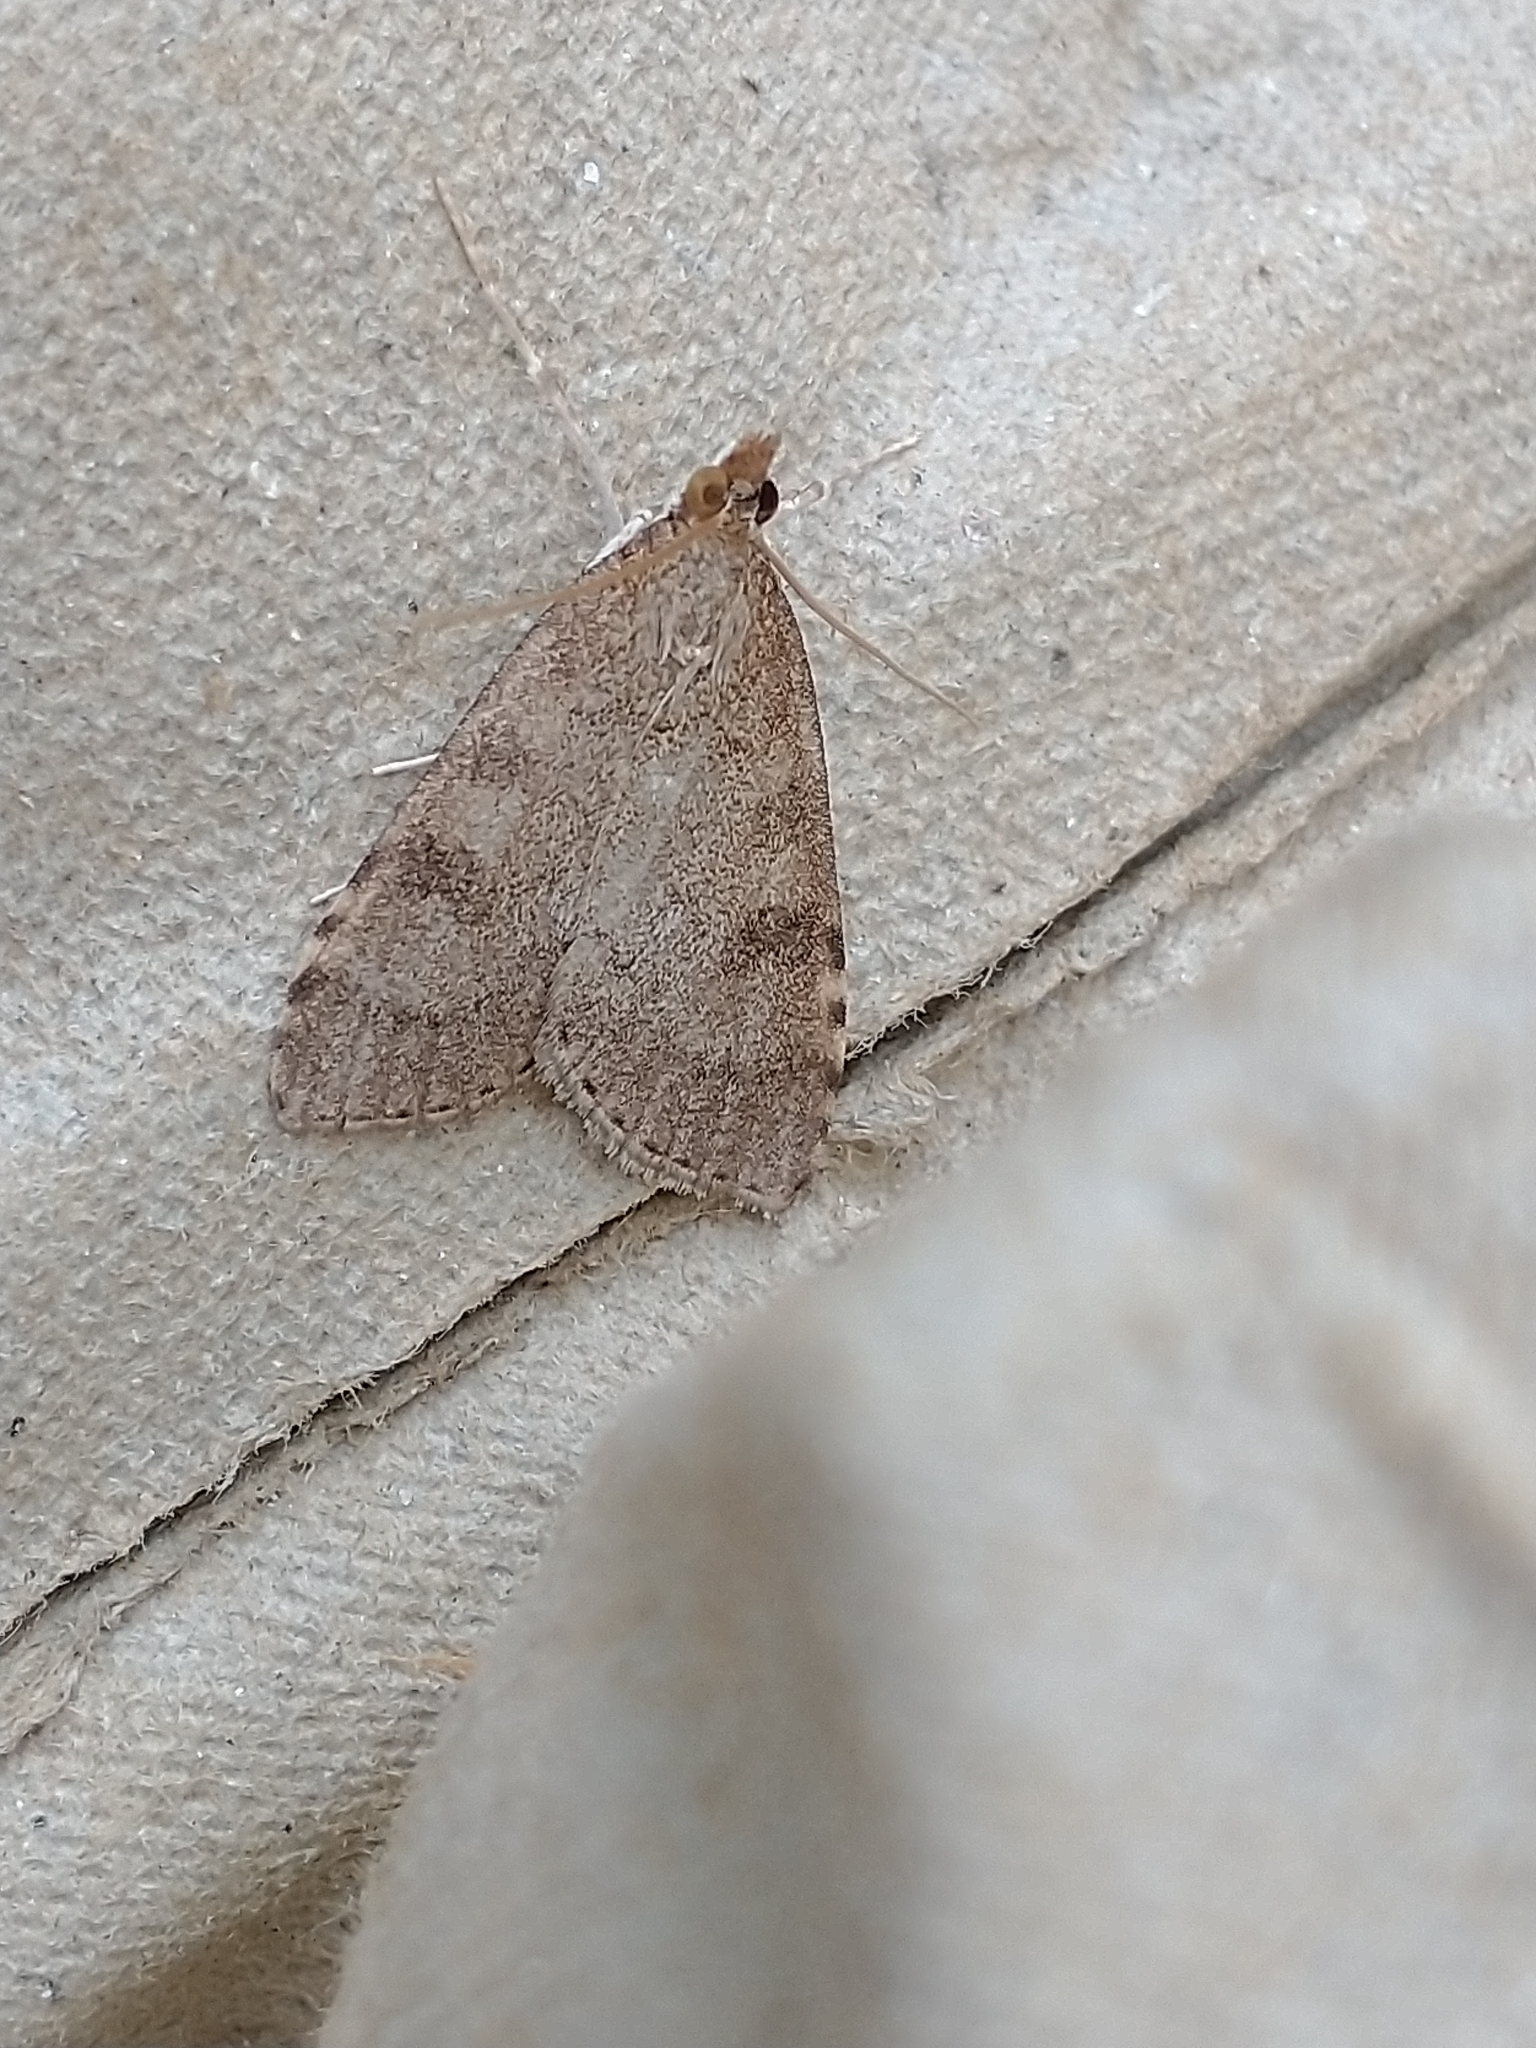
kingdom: Animalia
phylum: Arthropoda
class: Insecta
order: Lepidoptera
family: Crambidae
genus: Udea
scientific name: Udea prunalis
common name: Dusky pearl
